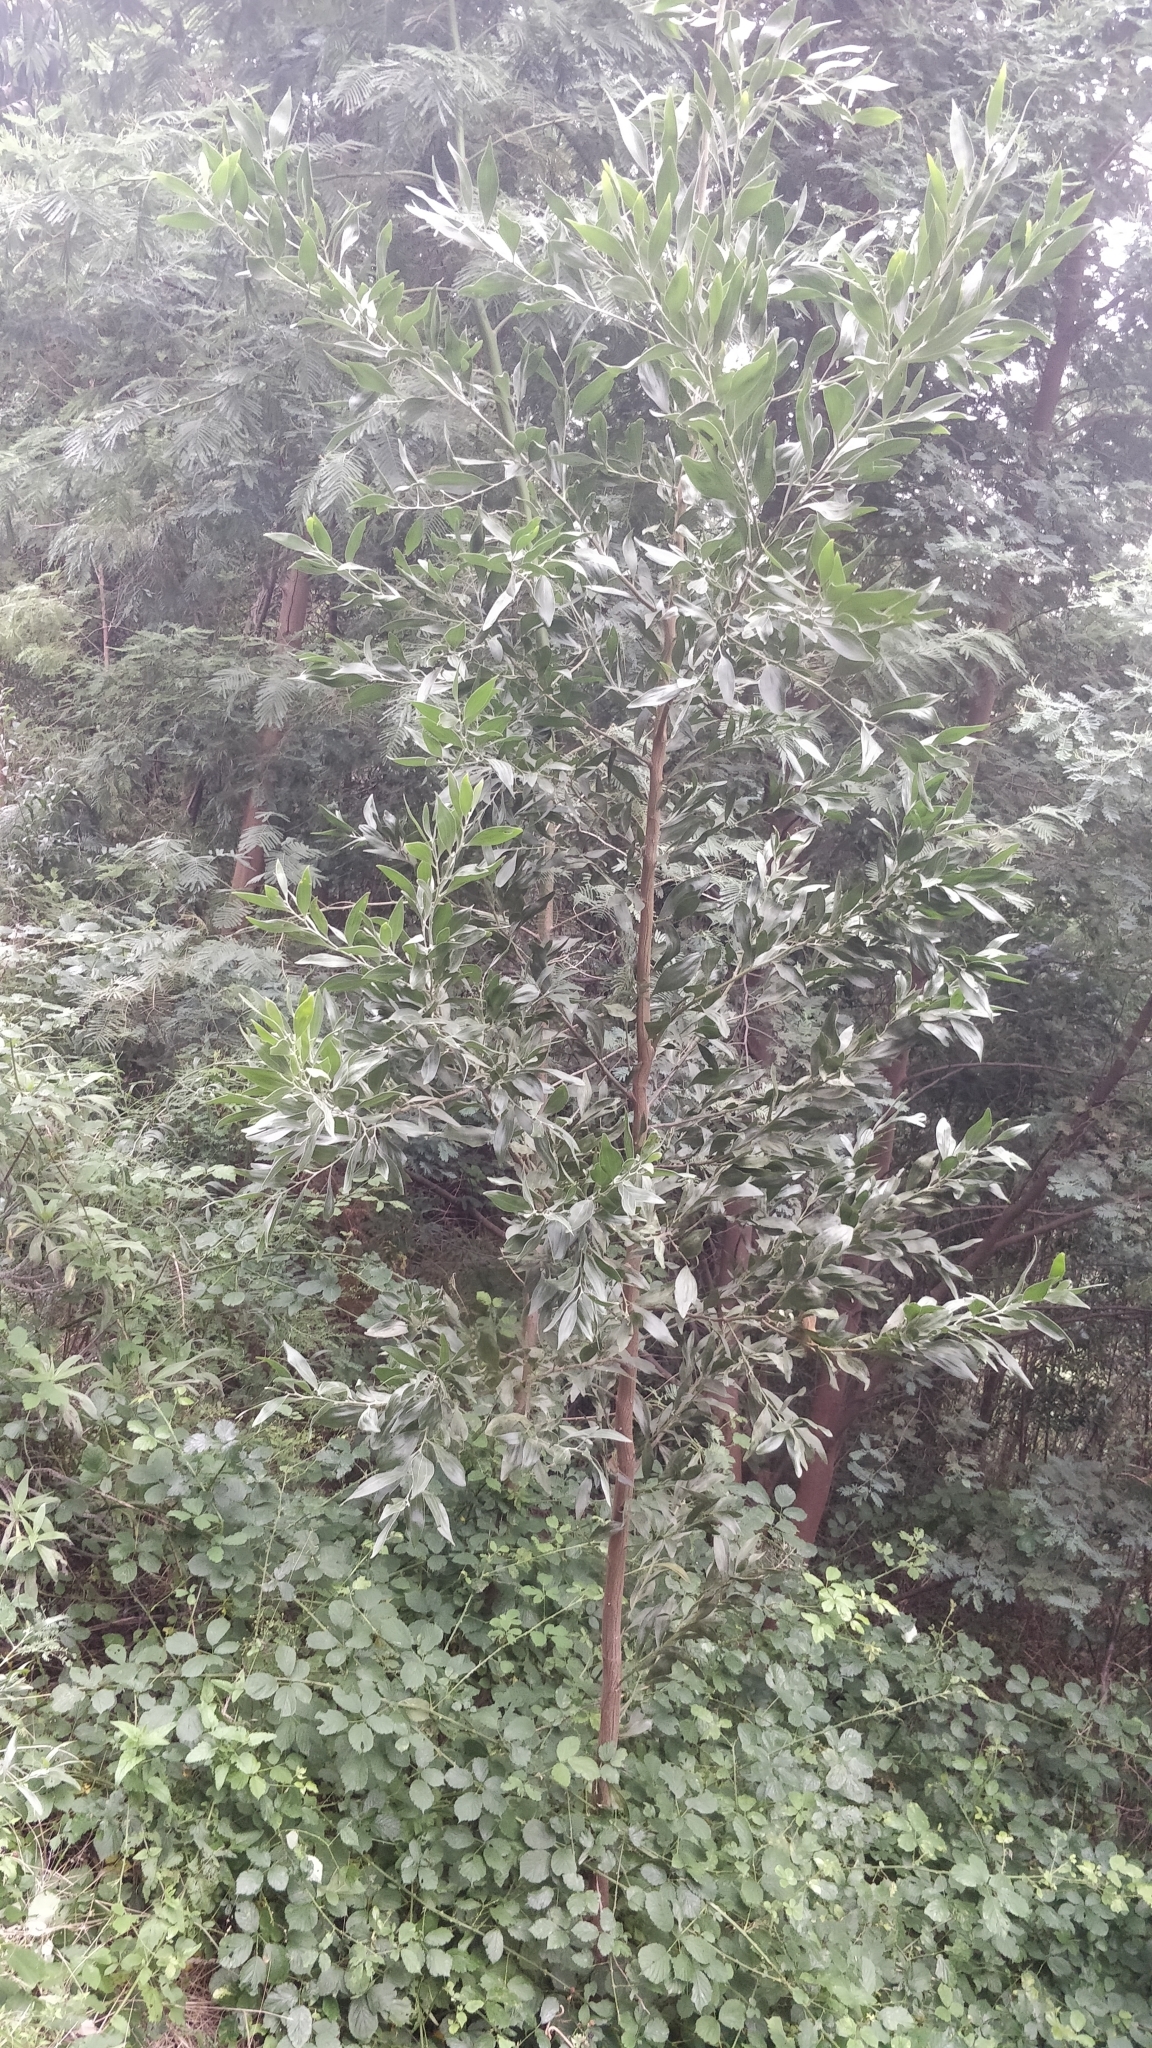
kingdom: Plantae
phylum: Tracheophyta
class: Magnoliopsida
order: Fabales
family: Fabaceae
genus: Acacia
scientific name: Acacia melanoxylon
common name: Blackwood
